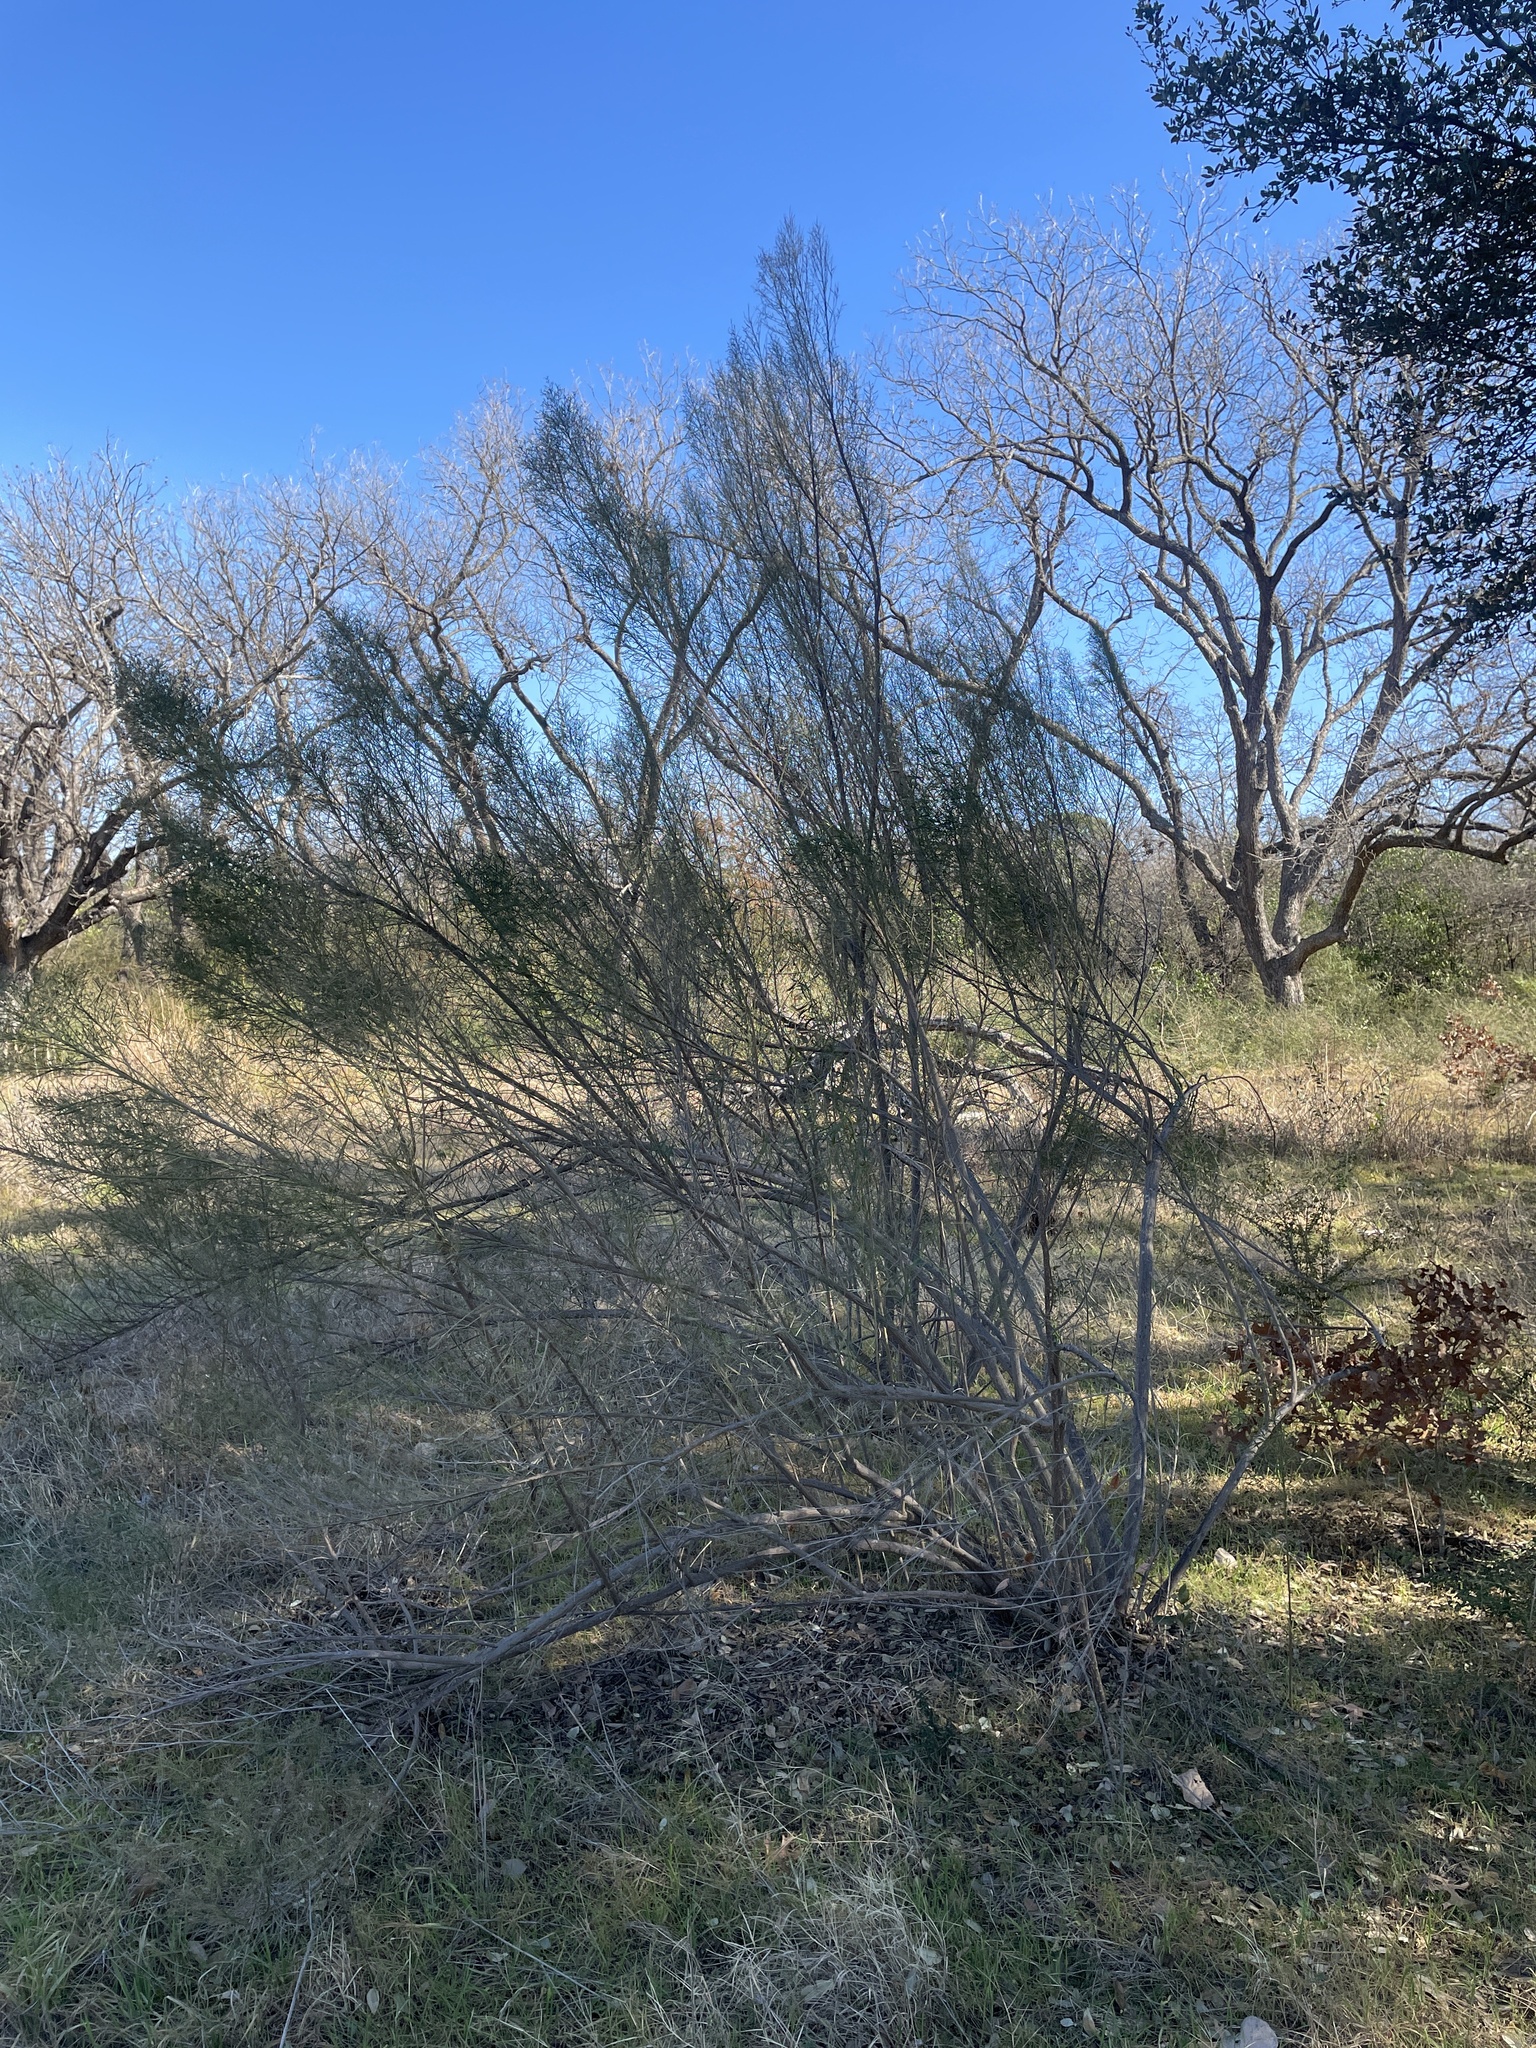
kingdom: Plantae
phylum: Tracheophyta
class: Magnoliopsida
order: Asterales
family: Asteraceae
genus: Baccharis
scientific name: Baccharis neglecta
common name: Roosevelt-weed
